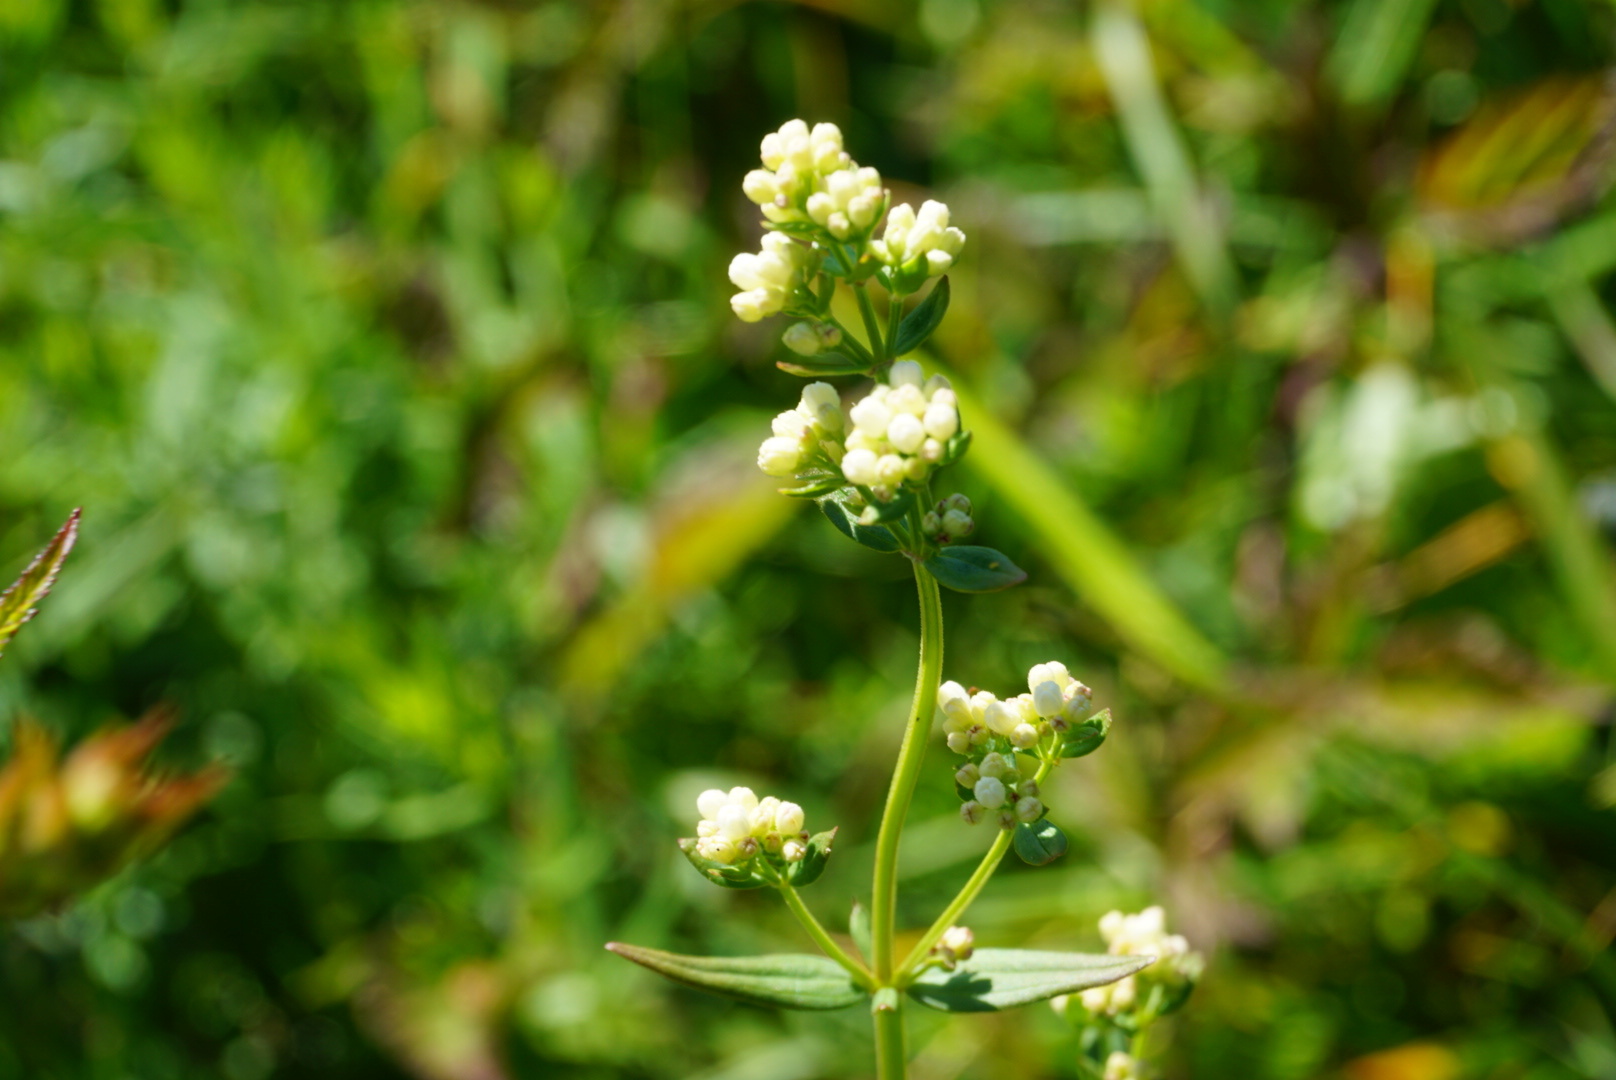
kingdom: Plantae
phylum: Tracheophyta
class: Magnoliopsida
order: Gentianales
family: Rubiaceae
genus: Galium
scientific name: Galium boreale
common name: Northern bedstraw
